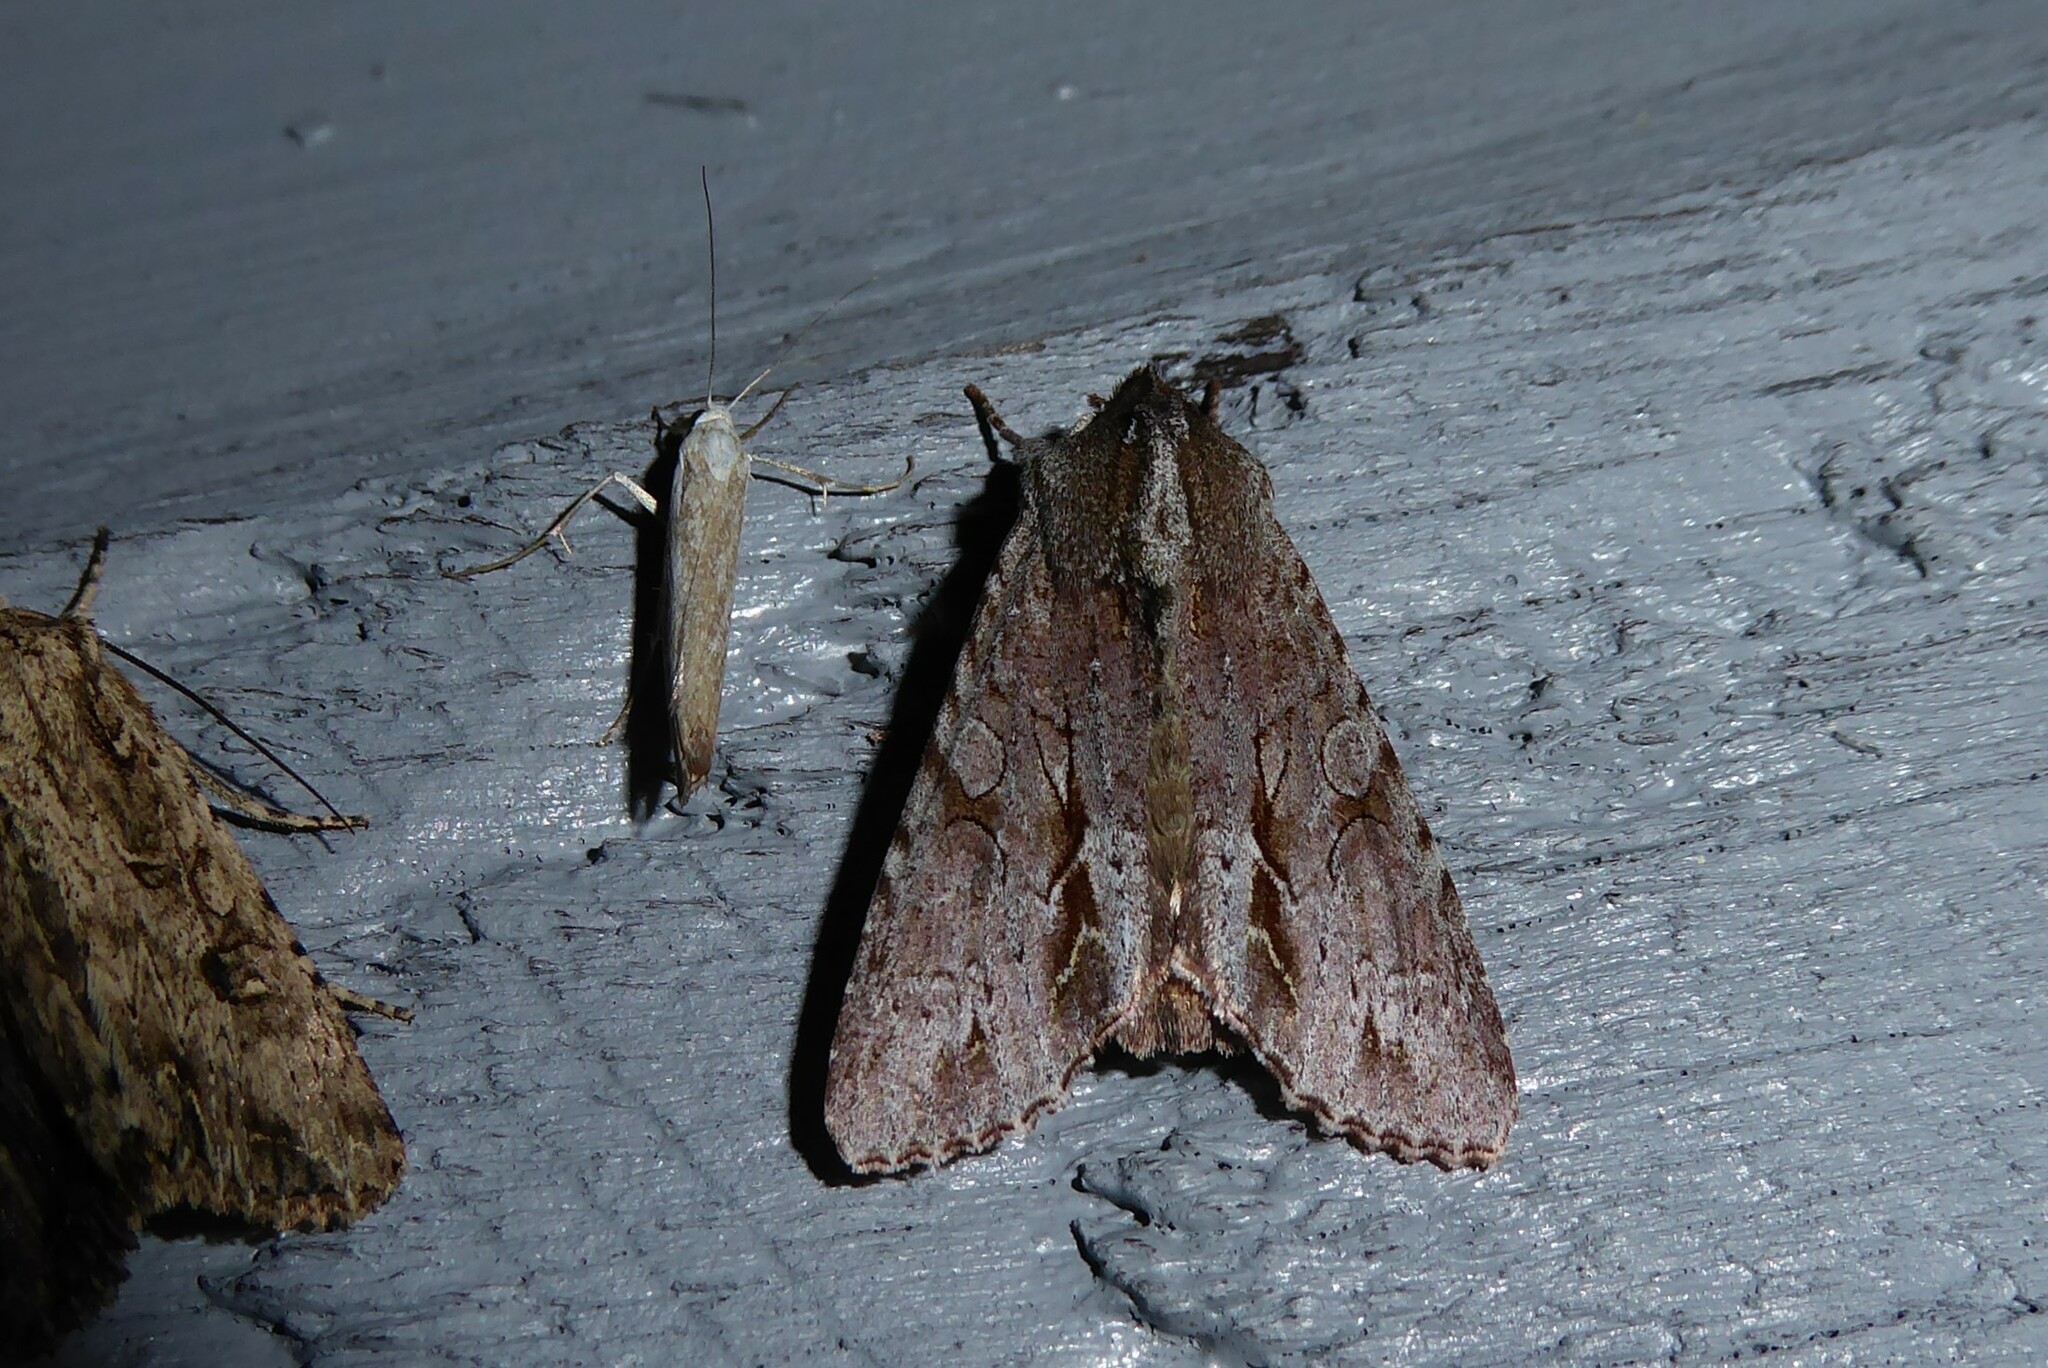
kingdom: Animalia
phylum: Arthropoda
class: Insecta
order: Lepidoptera
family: Noctuidae
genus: Ichneutica
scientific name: Ichneutica
